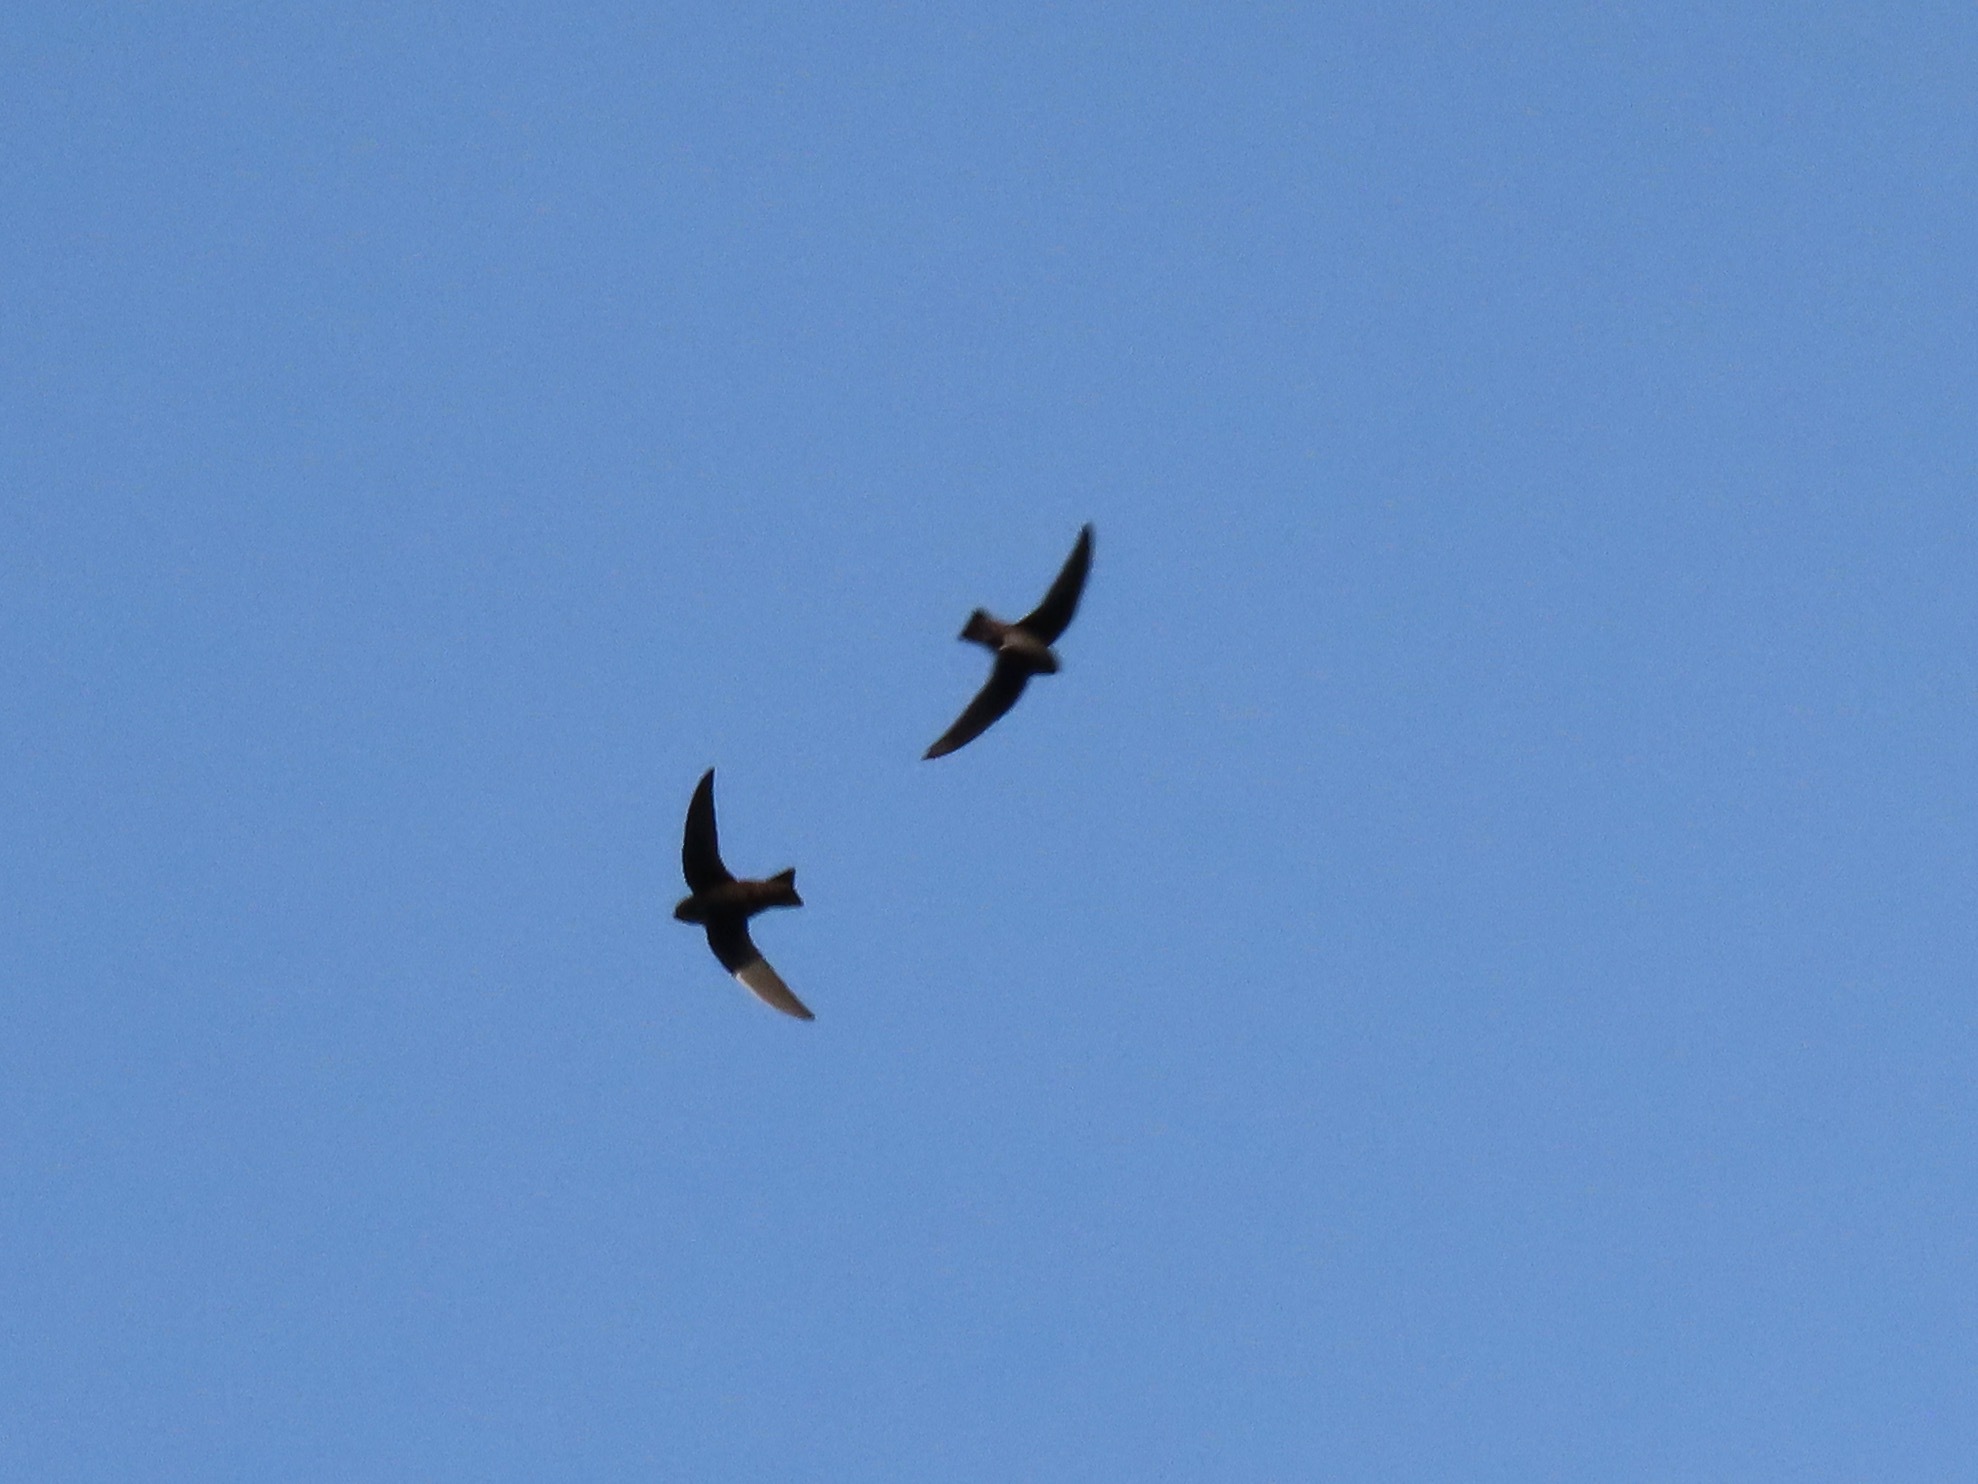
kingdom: Animalia
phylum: Chordata
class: Aves
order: Apodiformes
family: Apodidae
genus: Cypseloides
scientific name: Cypseloides niger
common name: Black swift
